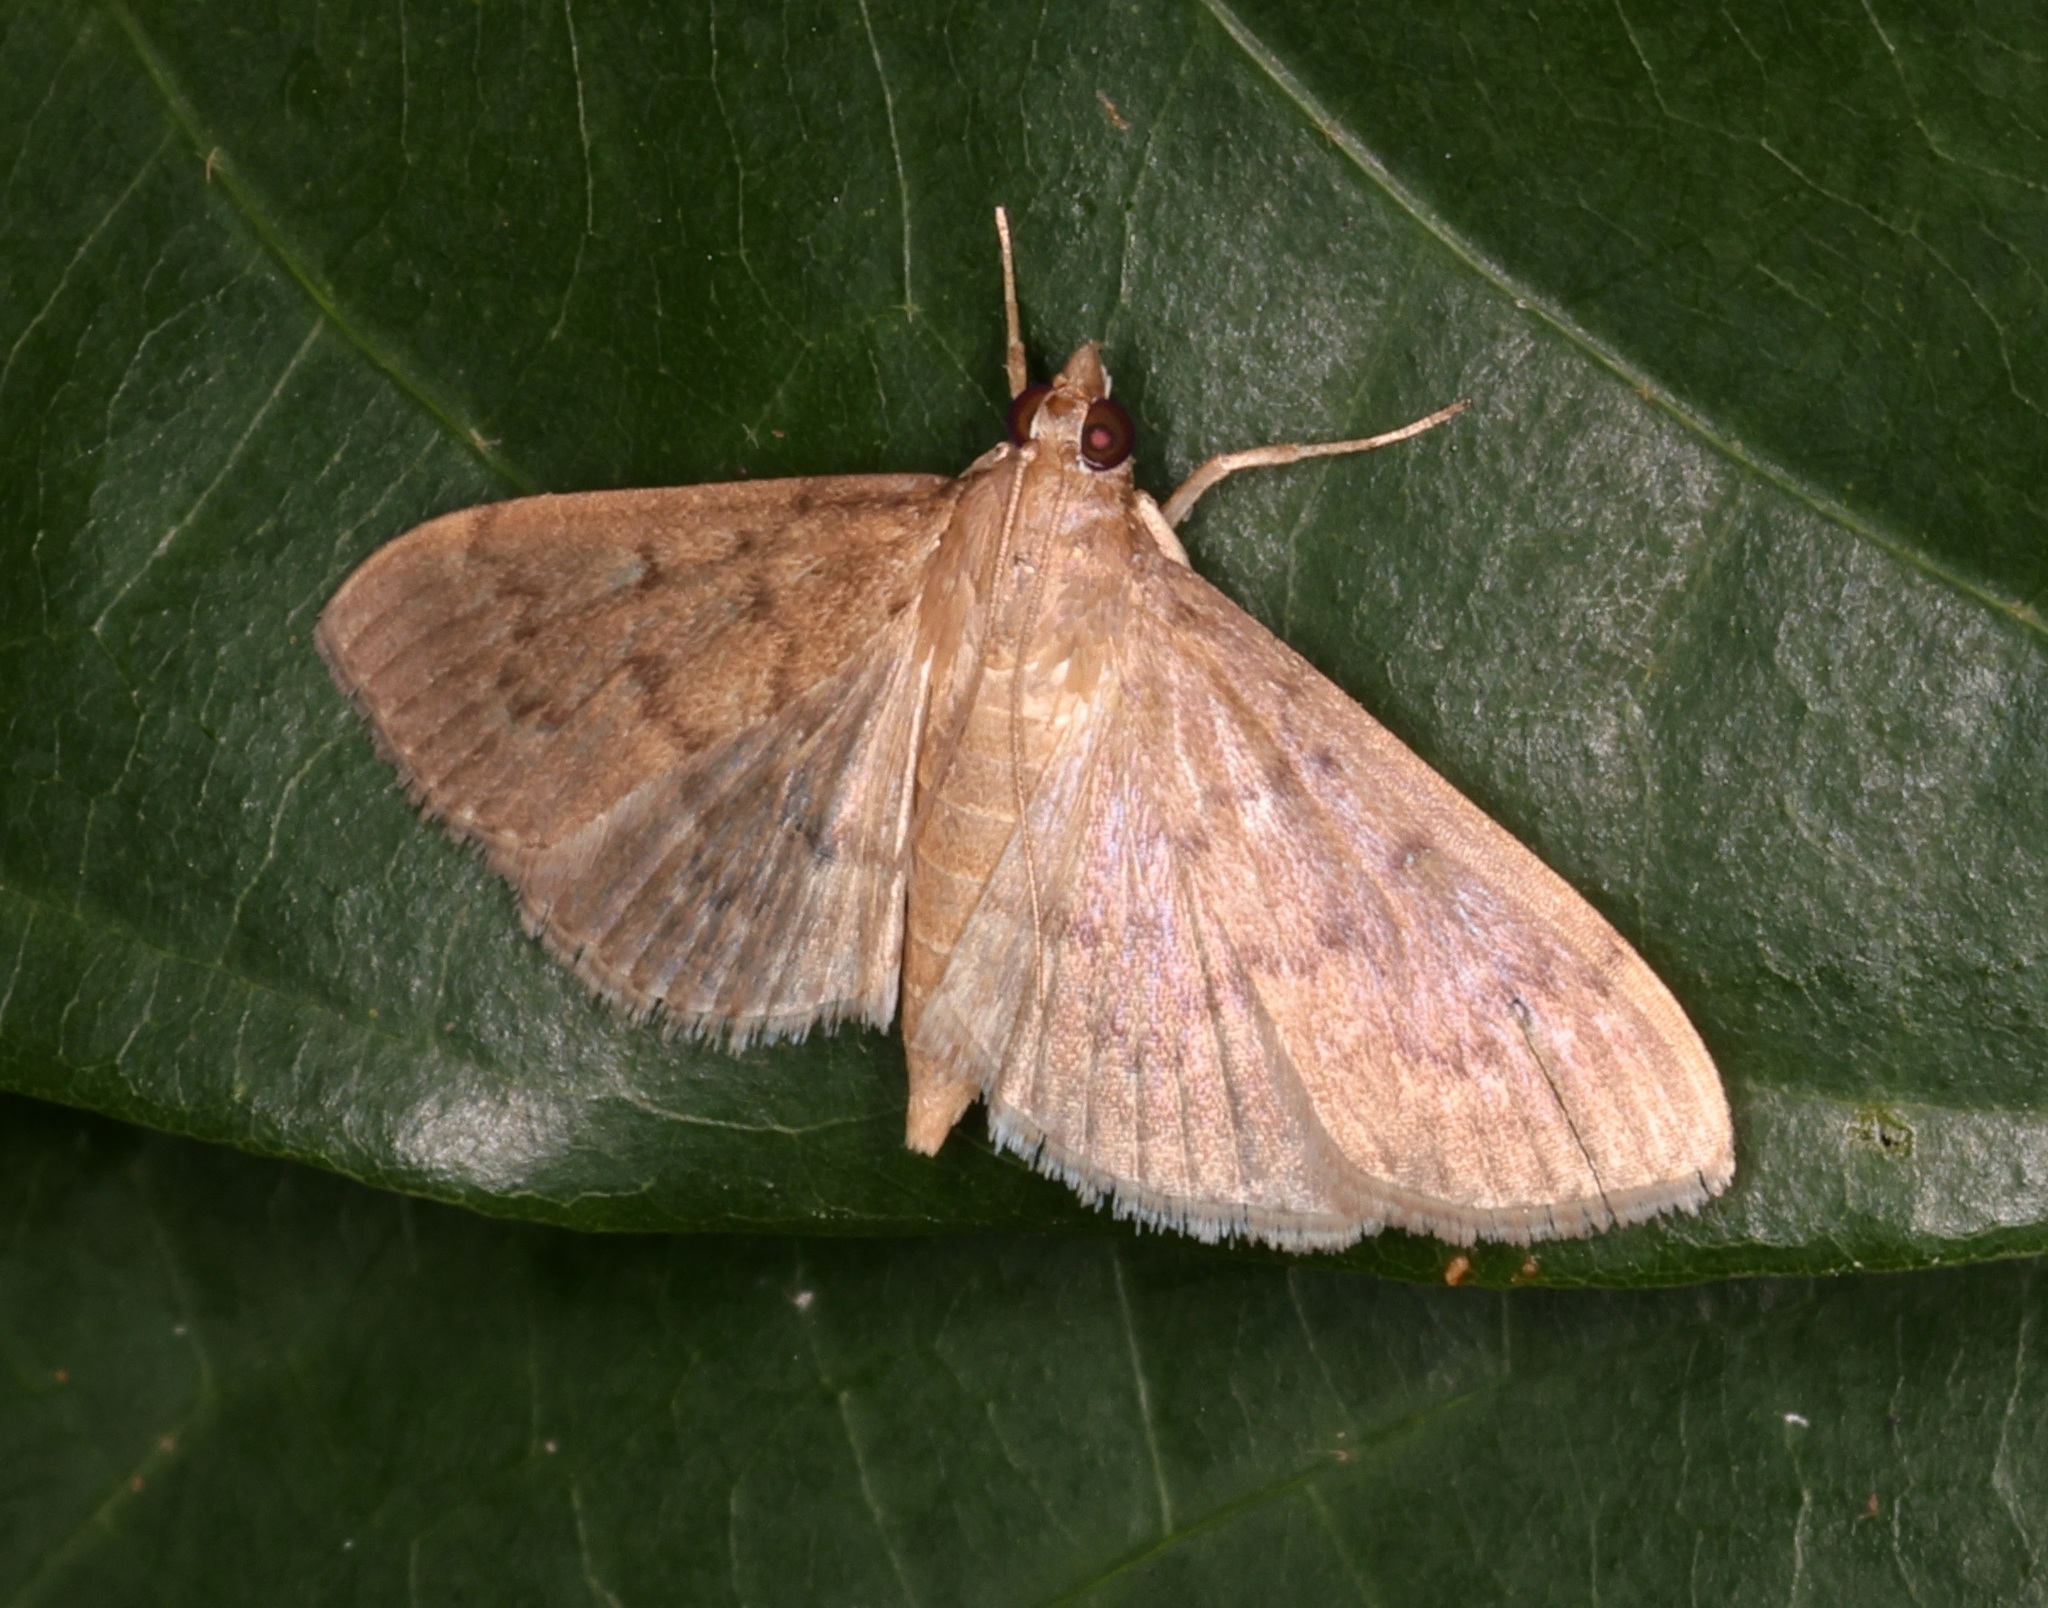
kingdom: Animalia
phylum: Arthropoda
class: Insecta
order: Lepidoptera
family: Crambidae
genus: Herpetogramma
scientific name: Herpetogramma licarsisalis
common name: Grass webworm
